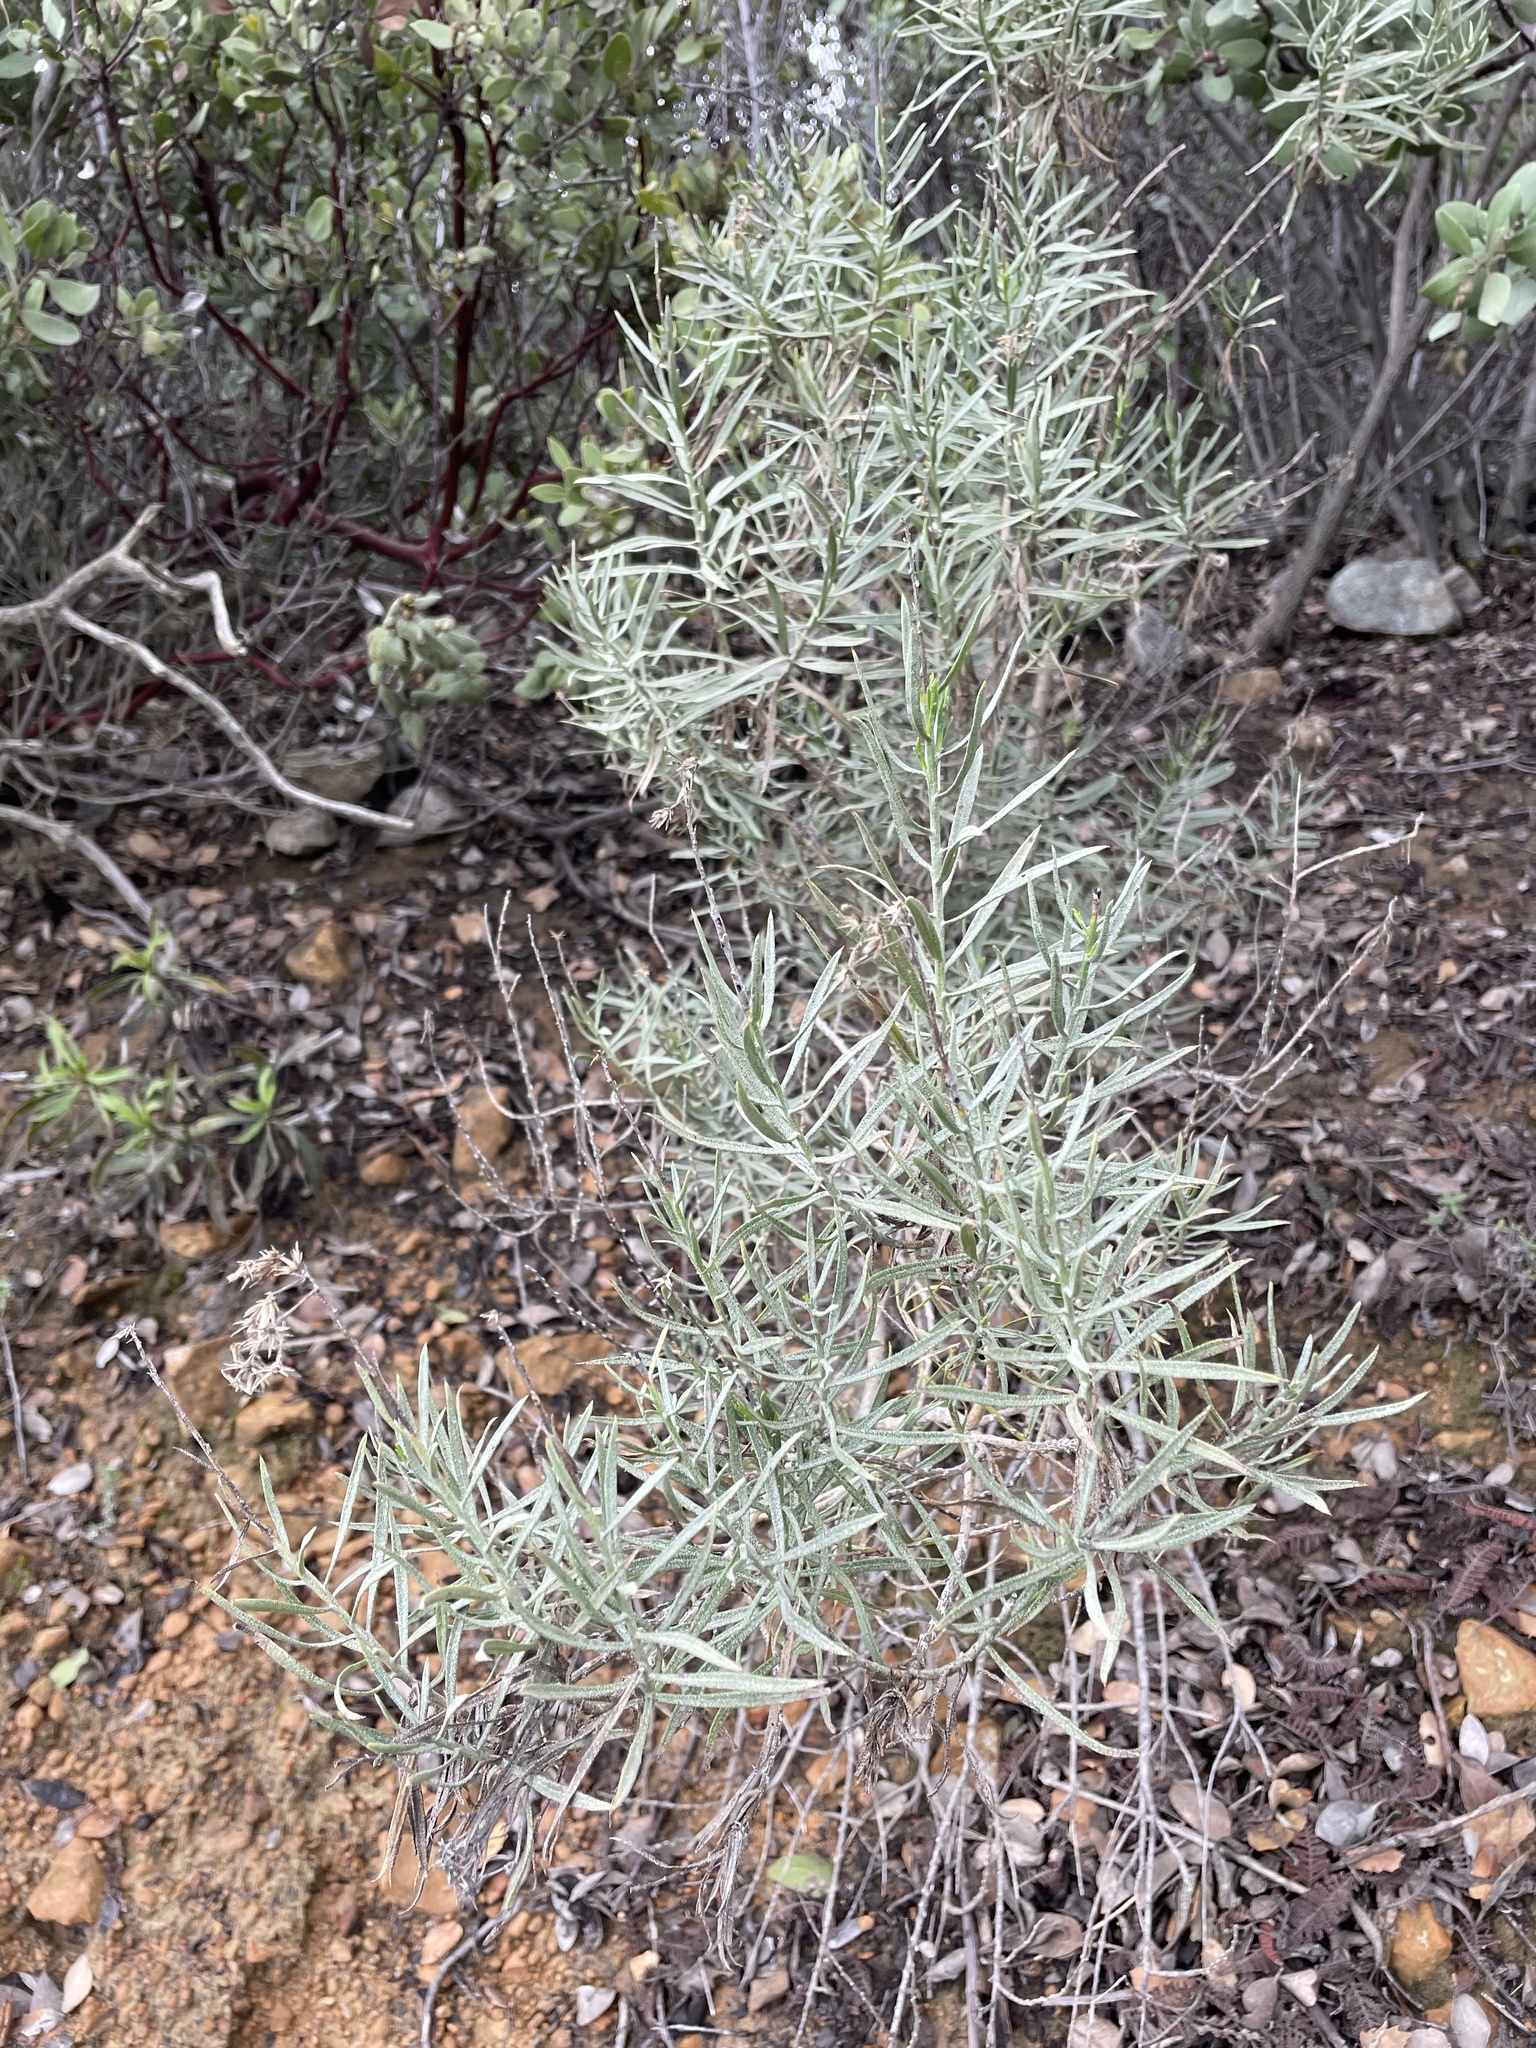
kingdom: Plantae
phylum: Tracheophyta
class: Magnoliopsida
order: Asterales
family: Asteraceae
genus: Ericameria
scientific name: Ericameria parishii
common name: Parish's goldenbush
